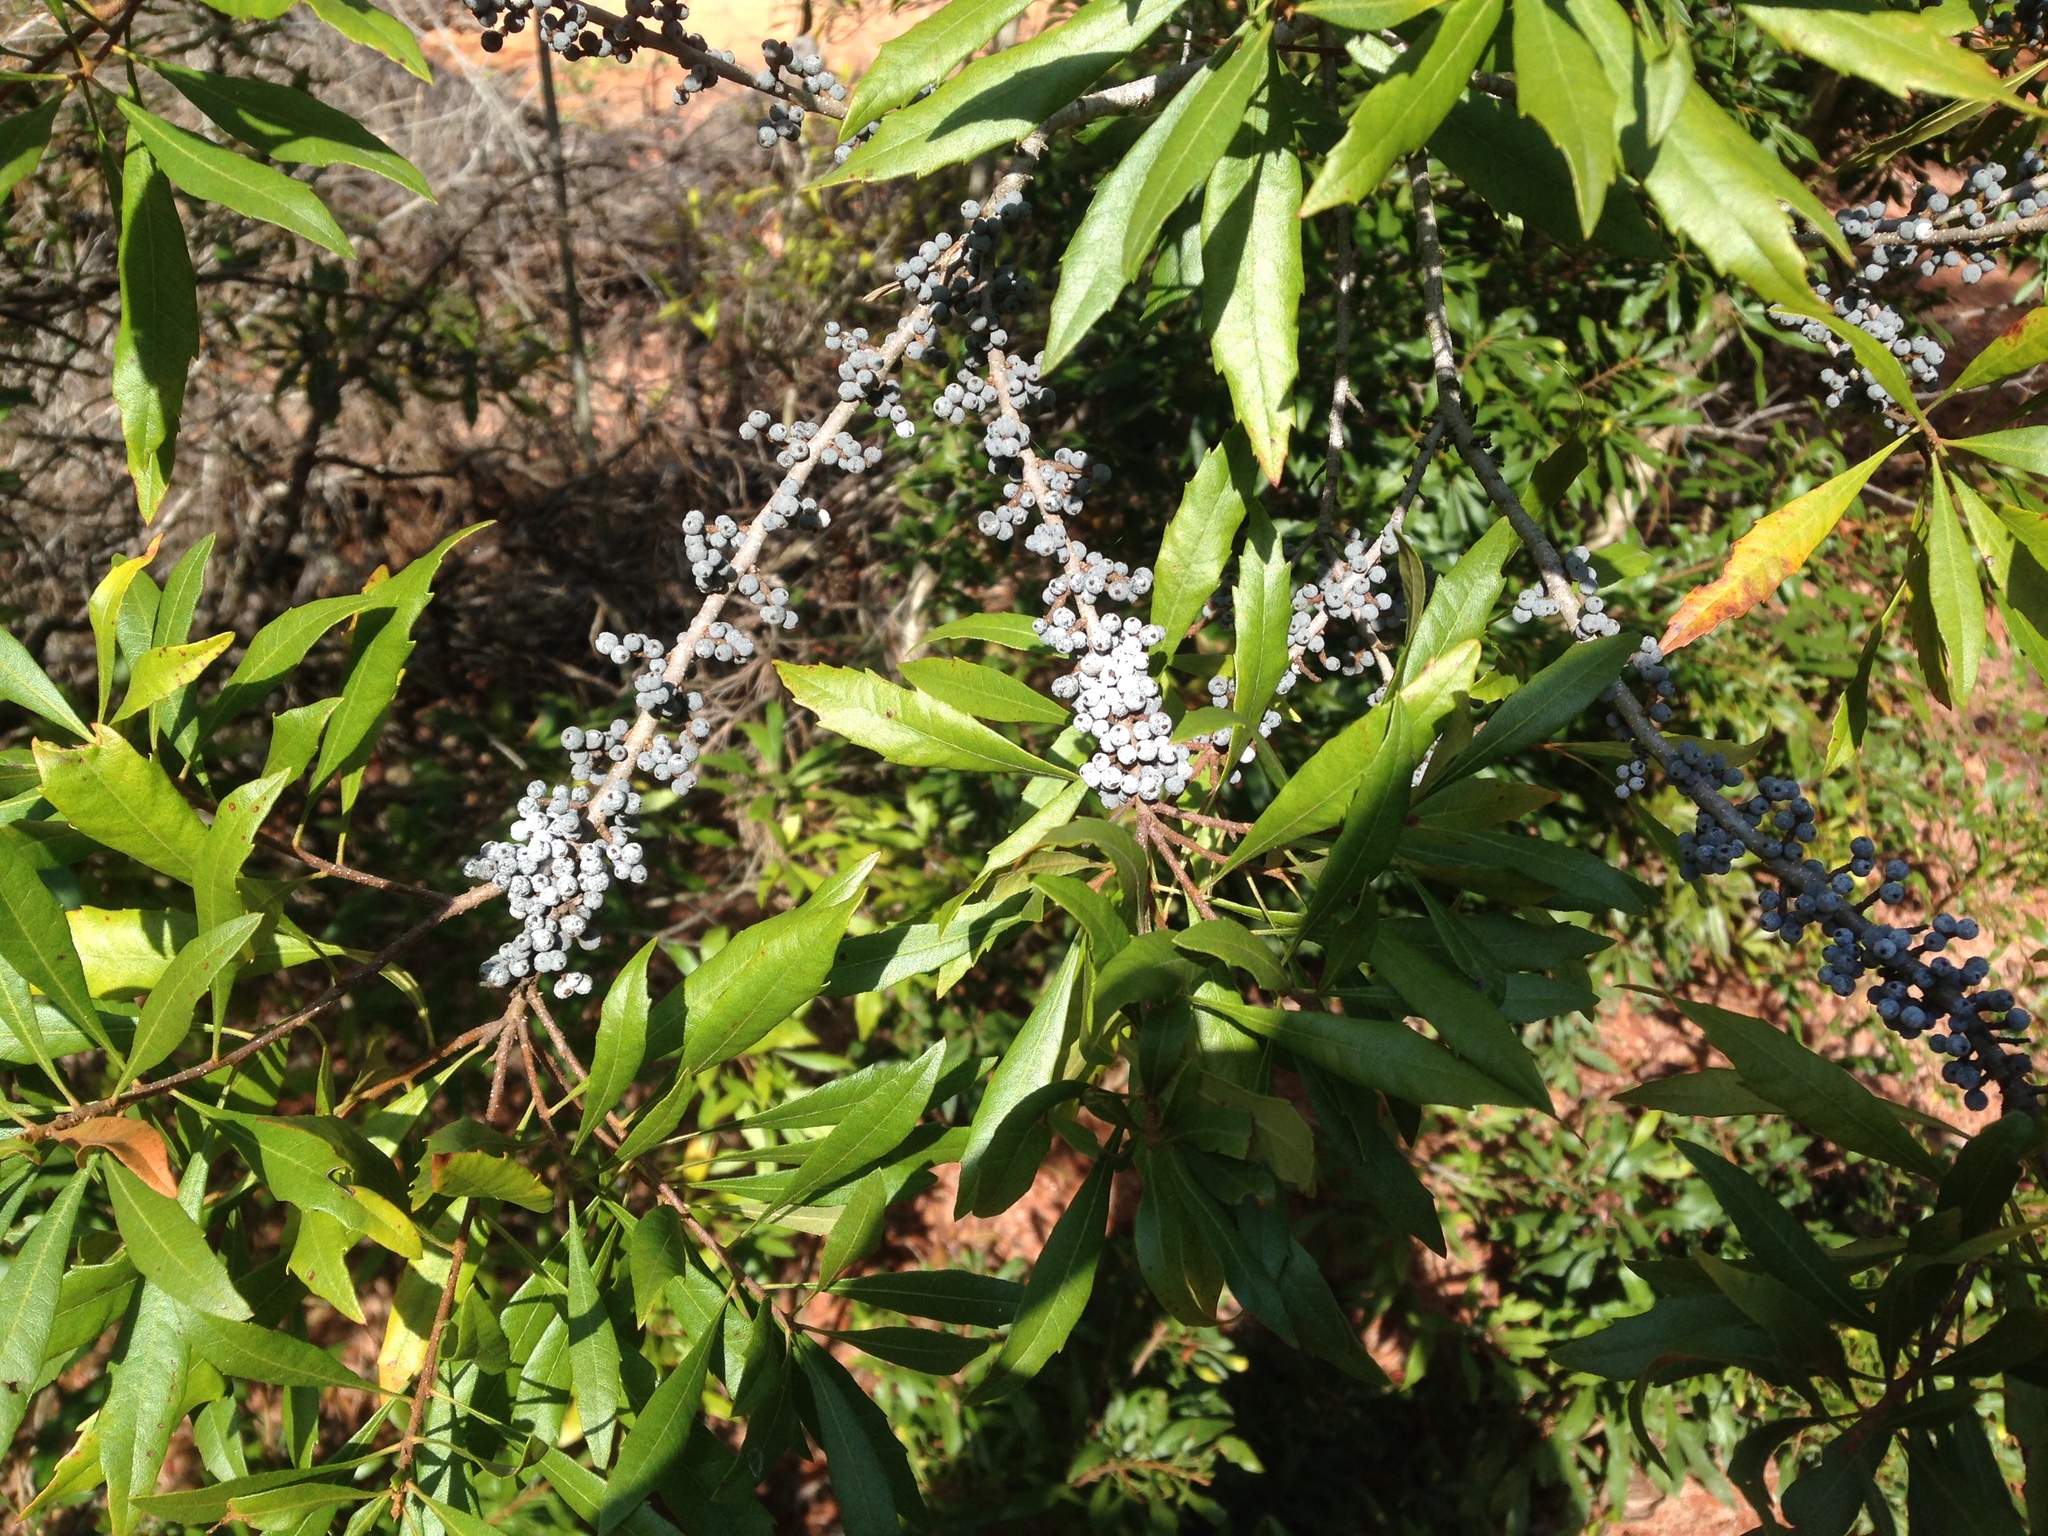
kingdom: Plantae
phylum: Tracheophyta
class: Magnoliopsida
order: Fagales
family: Myricaceae
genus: Morella
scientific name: Morella cerifera
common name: Wax myrtle
